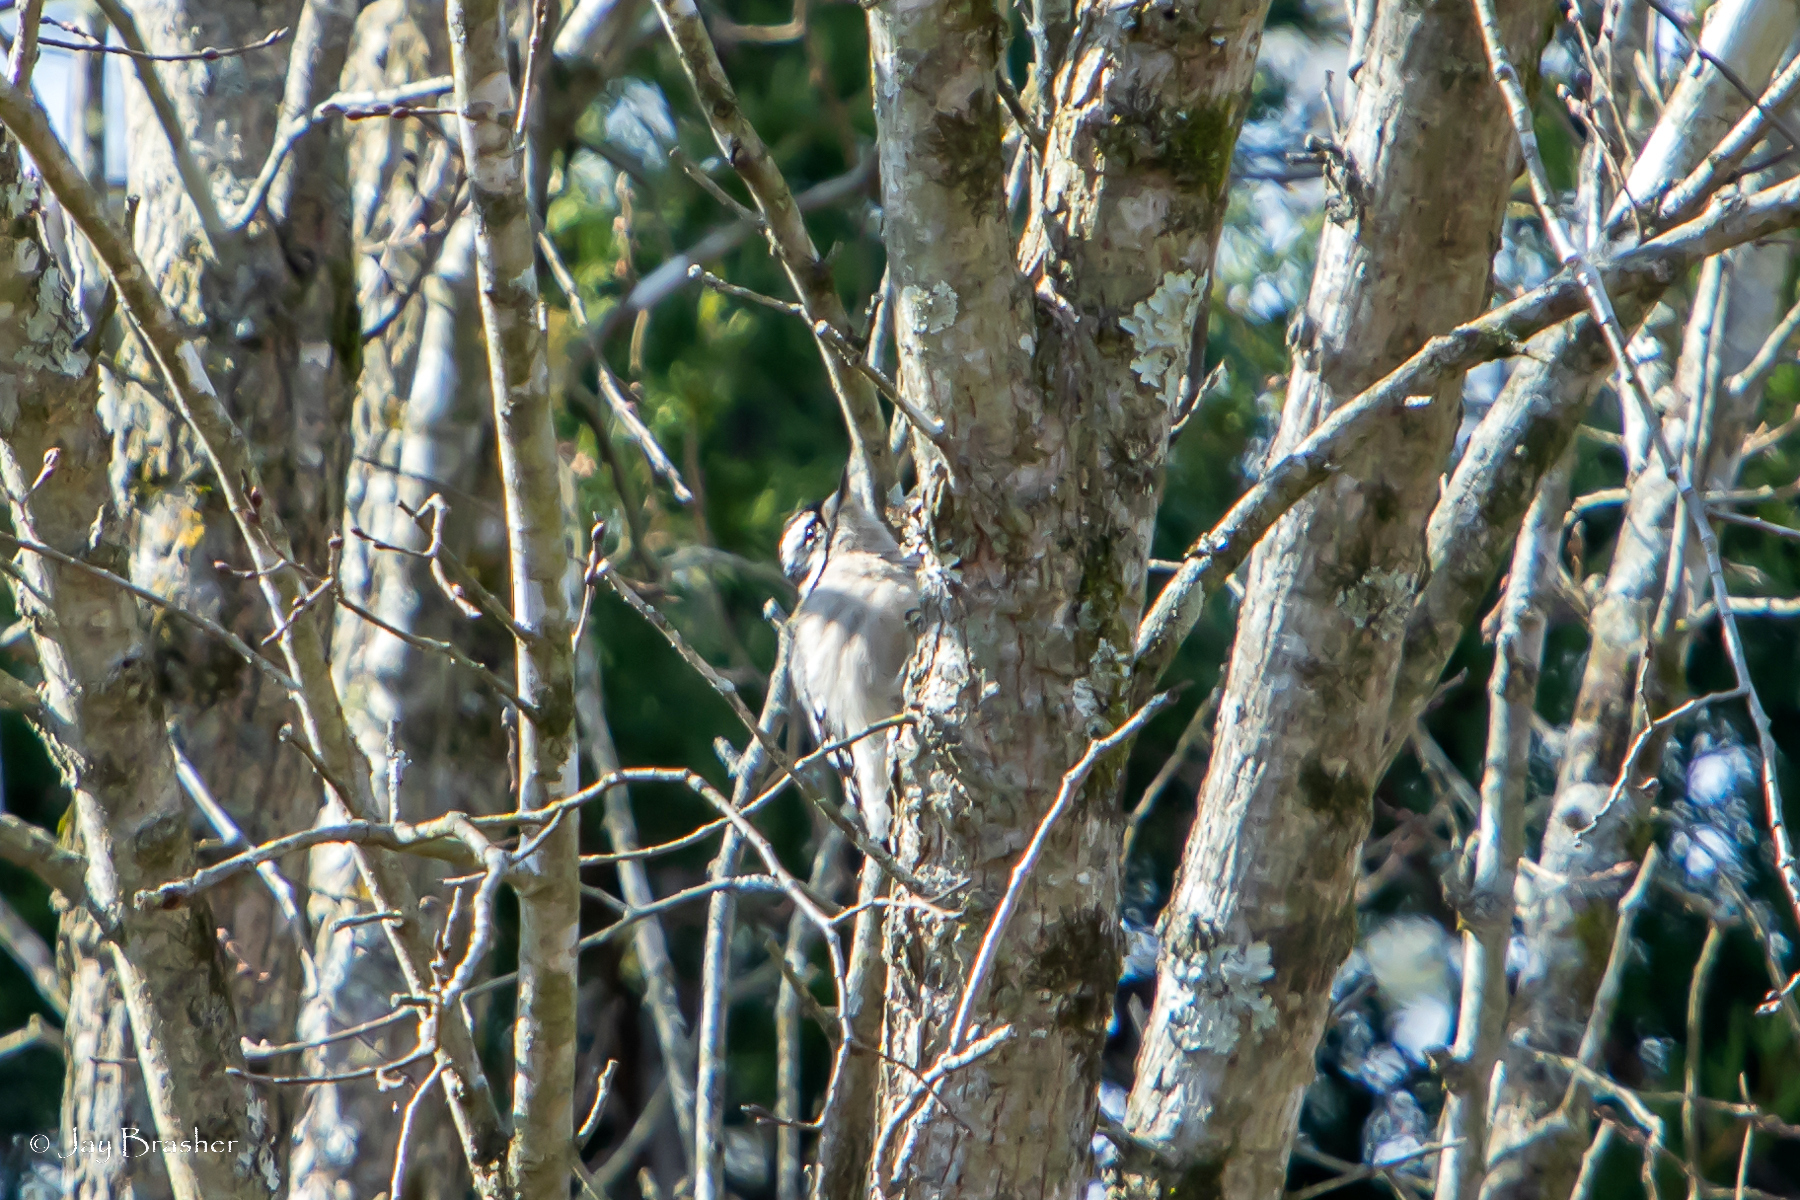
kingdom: Animalia
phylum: Chordata
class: Aves
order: Piciformes
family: Picidae
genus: Dryobates
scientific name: Dryobates pubescens
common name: Downy woodpecker
